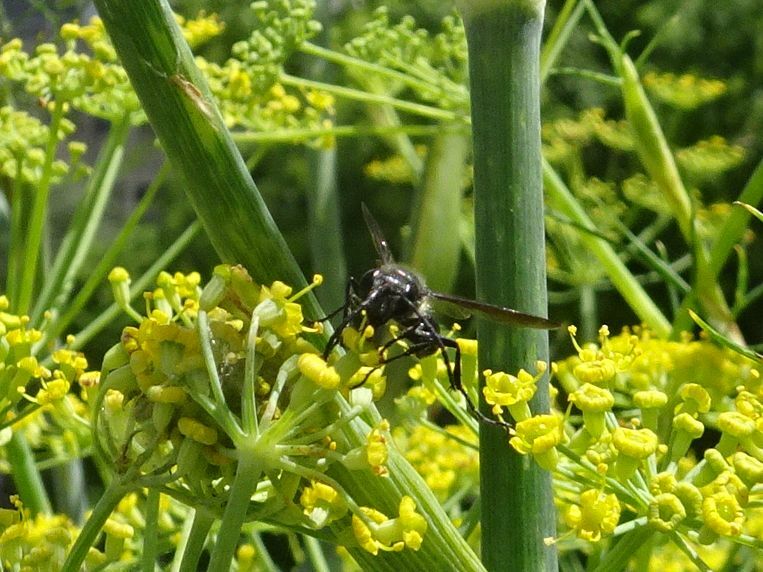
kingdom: Animalia
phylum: Arthropoda
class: Insecta
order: Hymenoptera
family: Sphecidae
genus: Isodontia
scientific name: Isodontia mexicana
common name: Mud dauber
